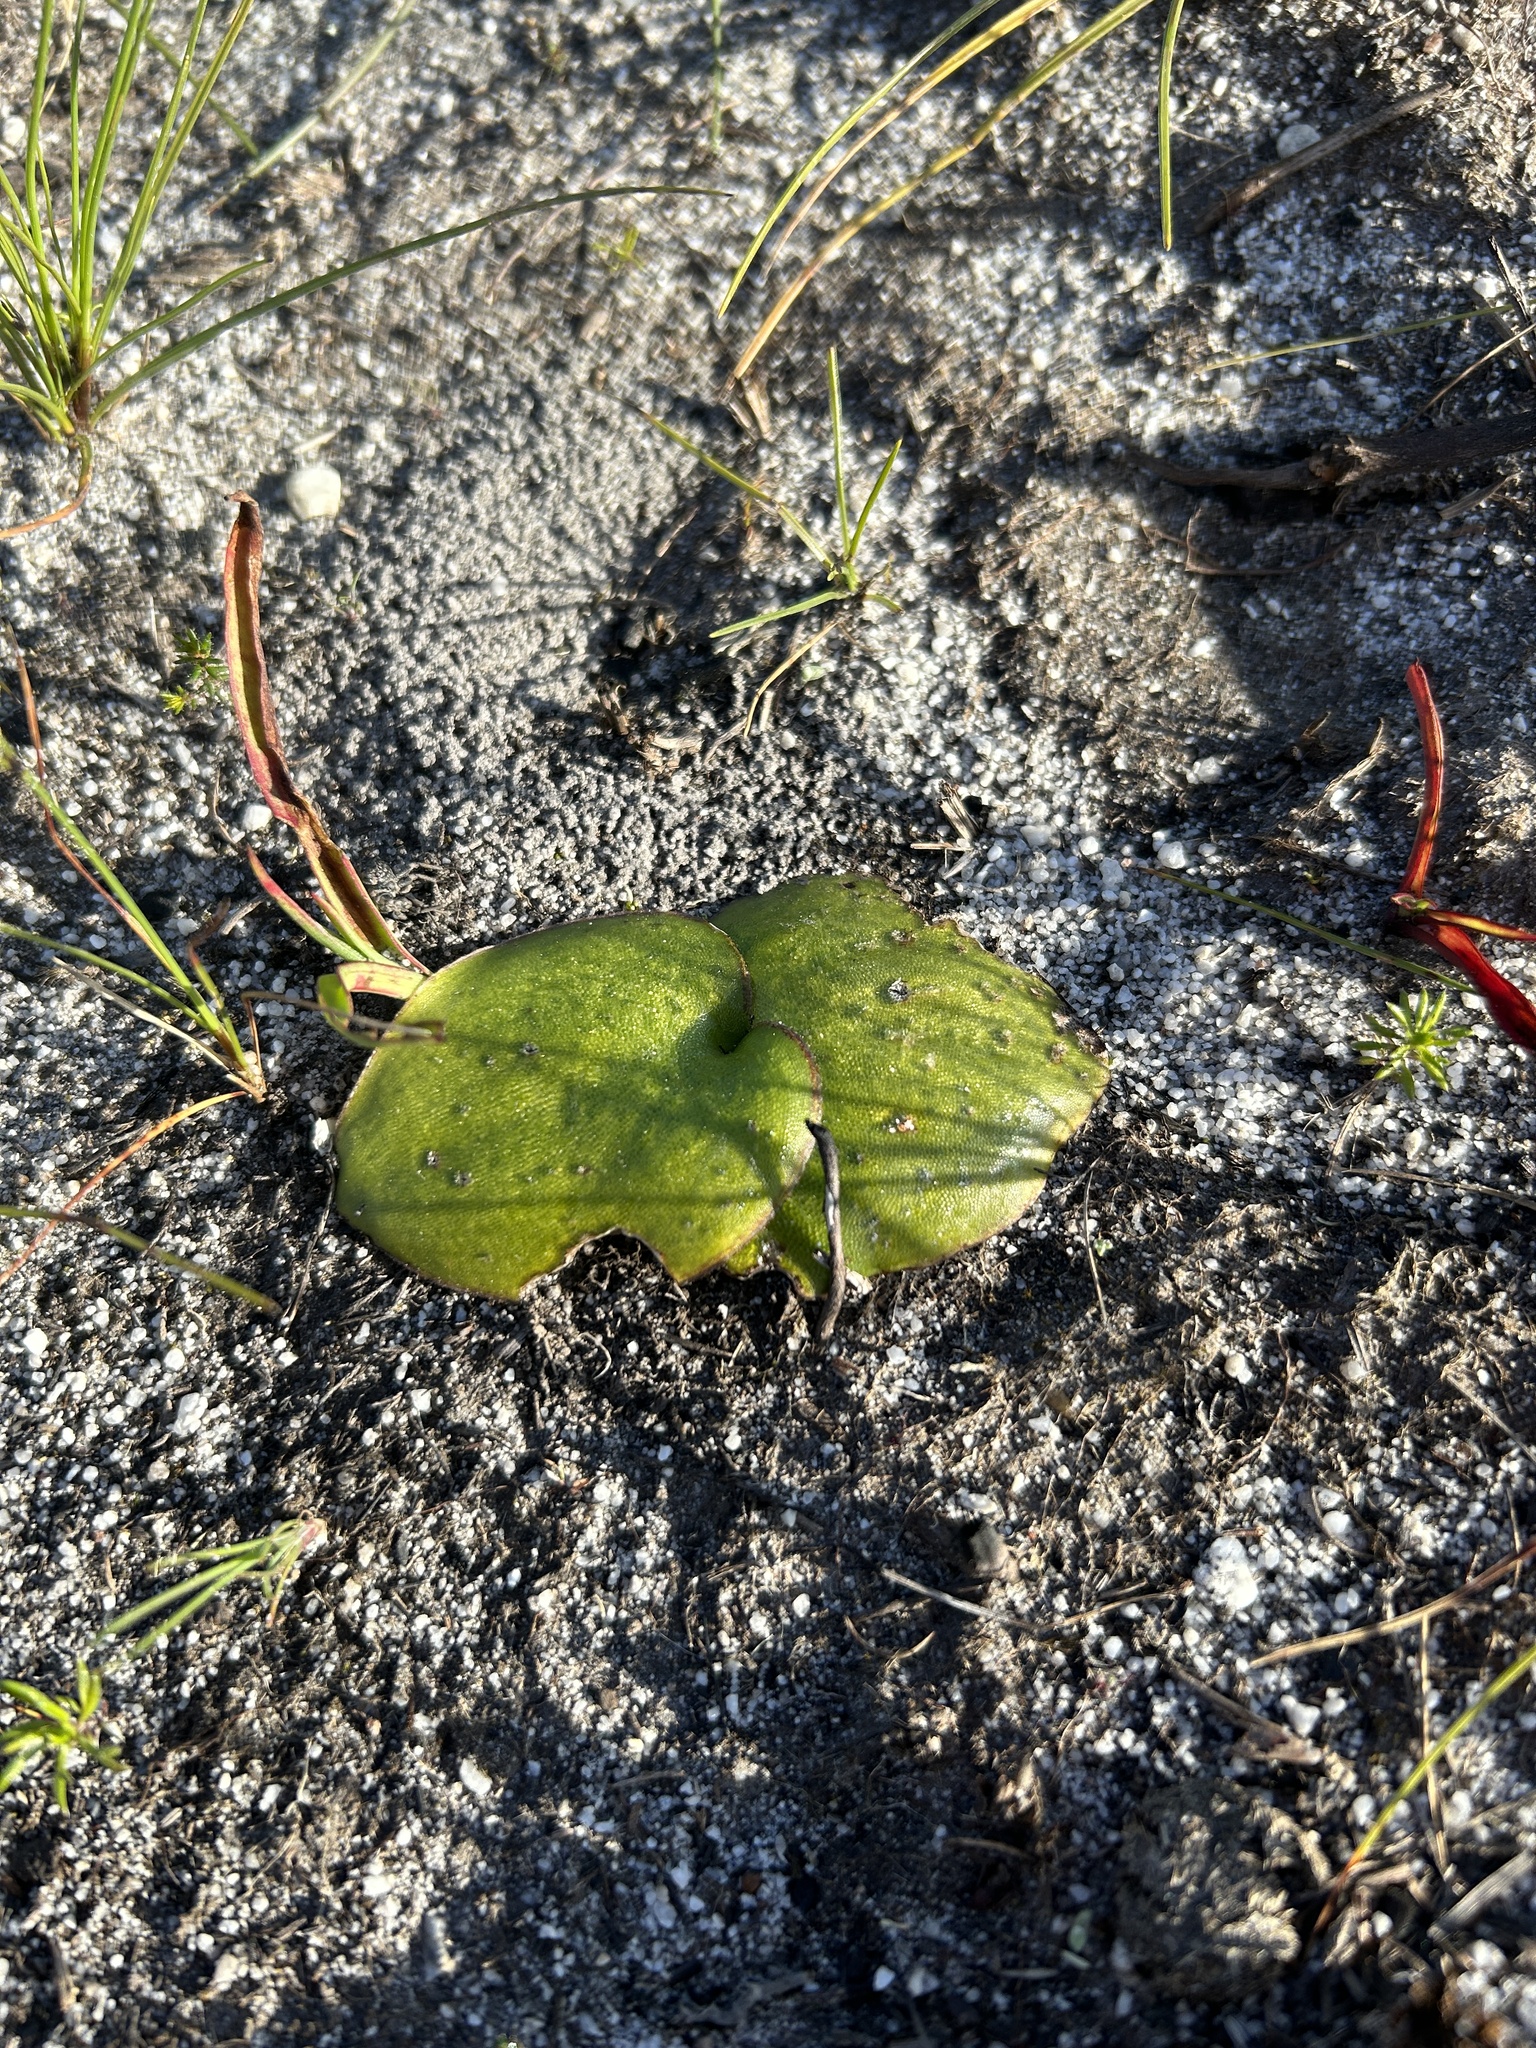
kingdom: Plantae
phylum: Tracheophyta
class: Liliopsida
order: Asparagales
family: Orchidaceae
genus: Satyrium
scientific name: Satyrium erectum
